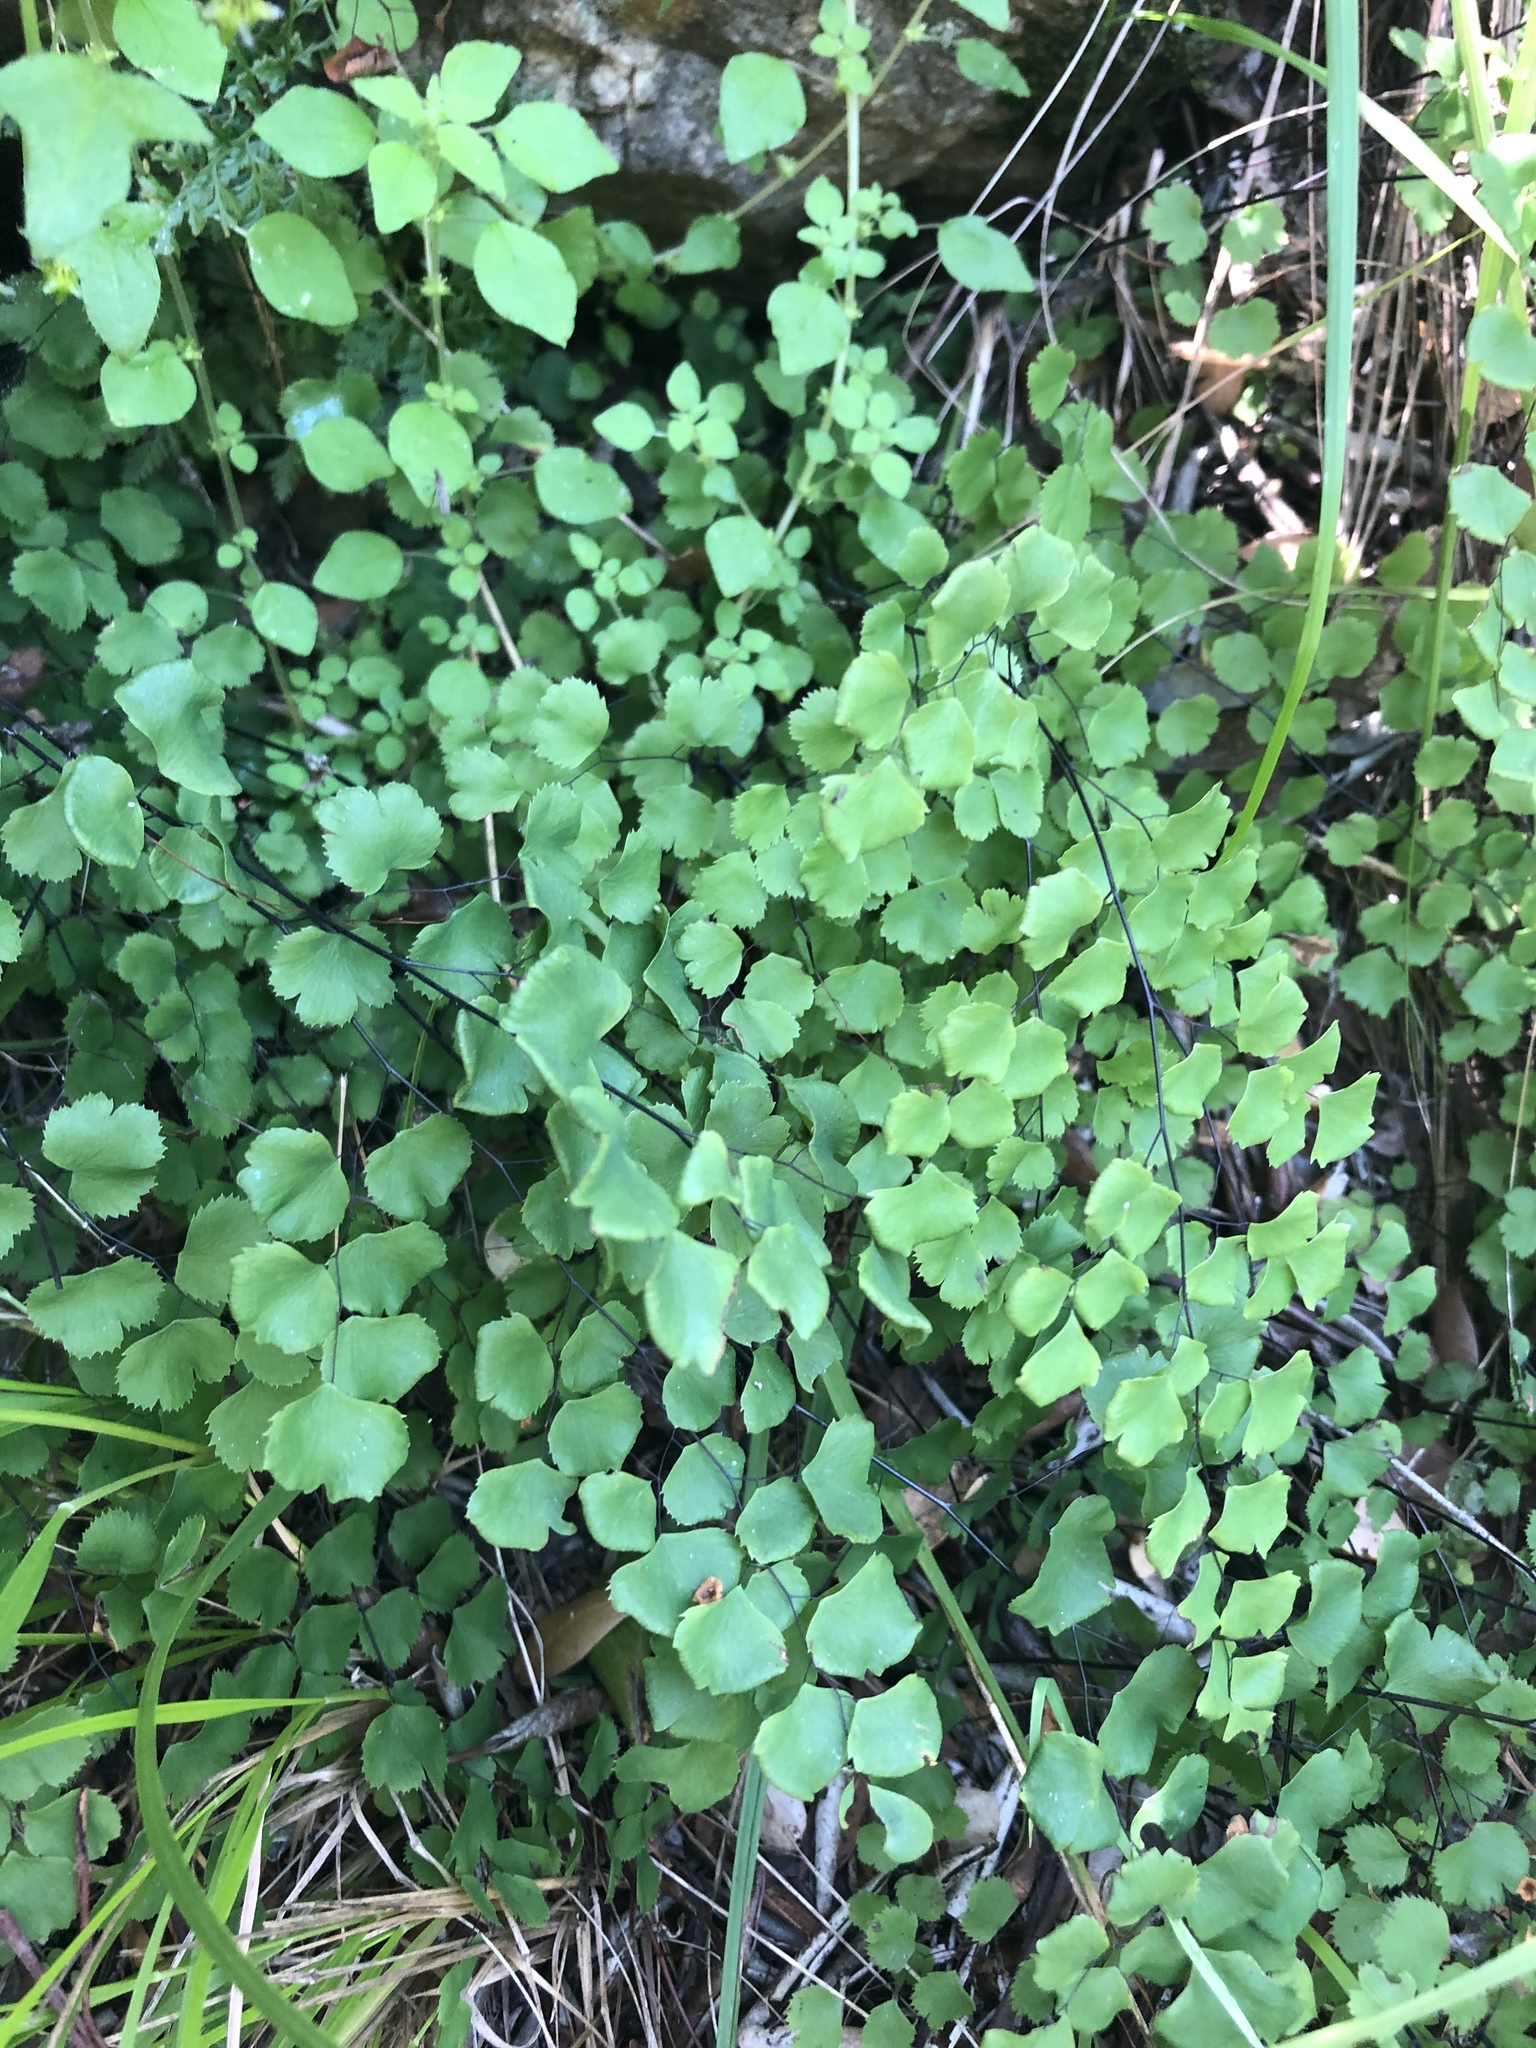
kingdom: Plantae
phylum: Tracheophyta
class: Polypodiopsida
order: Polypodiales
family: Pteridaceae
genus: Adiantum
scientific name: Adiantum jordanii
